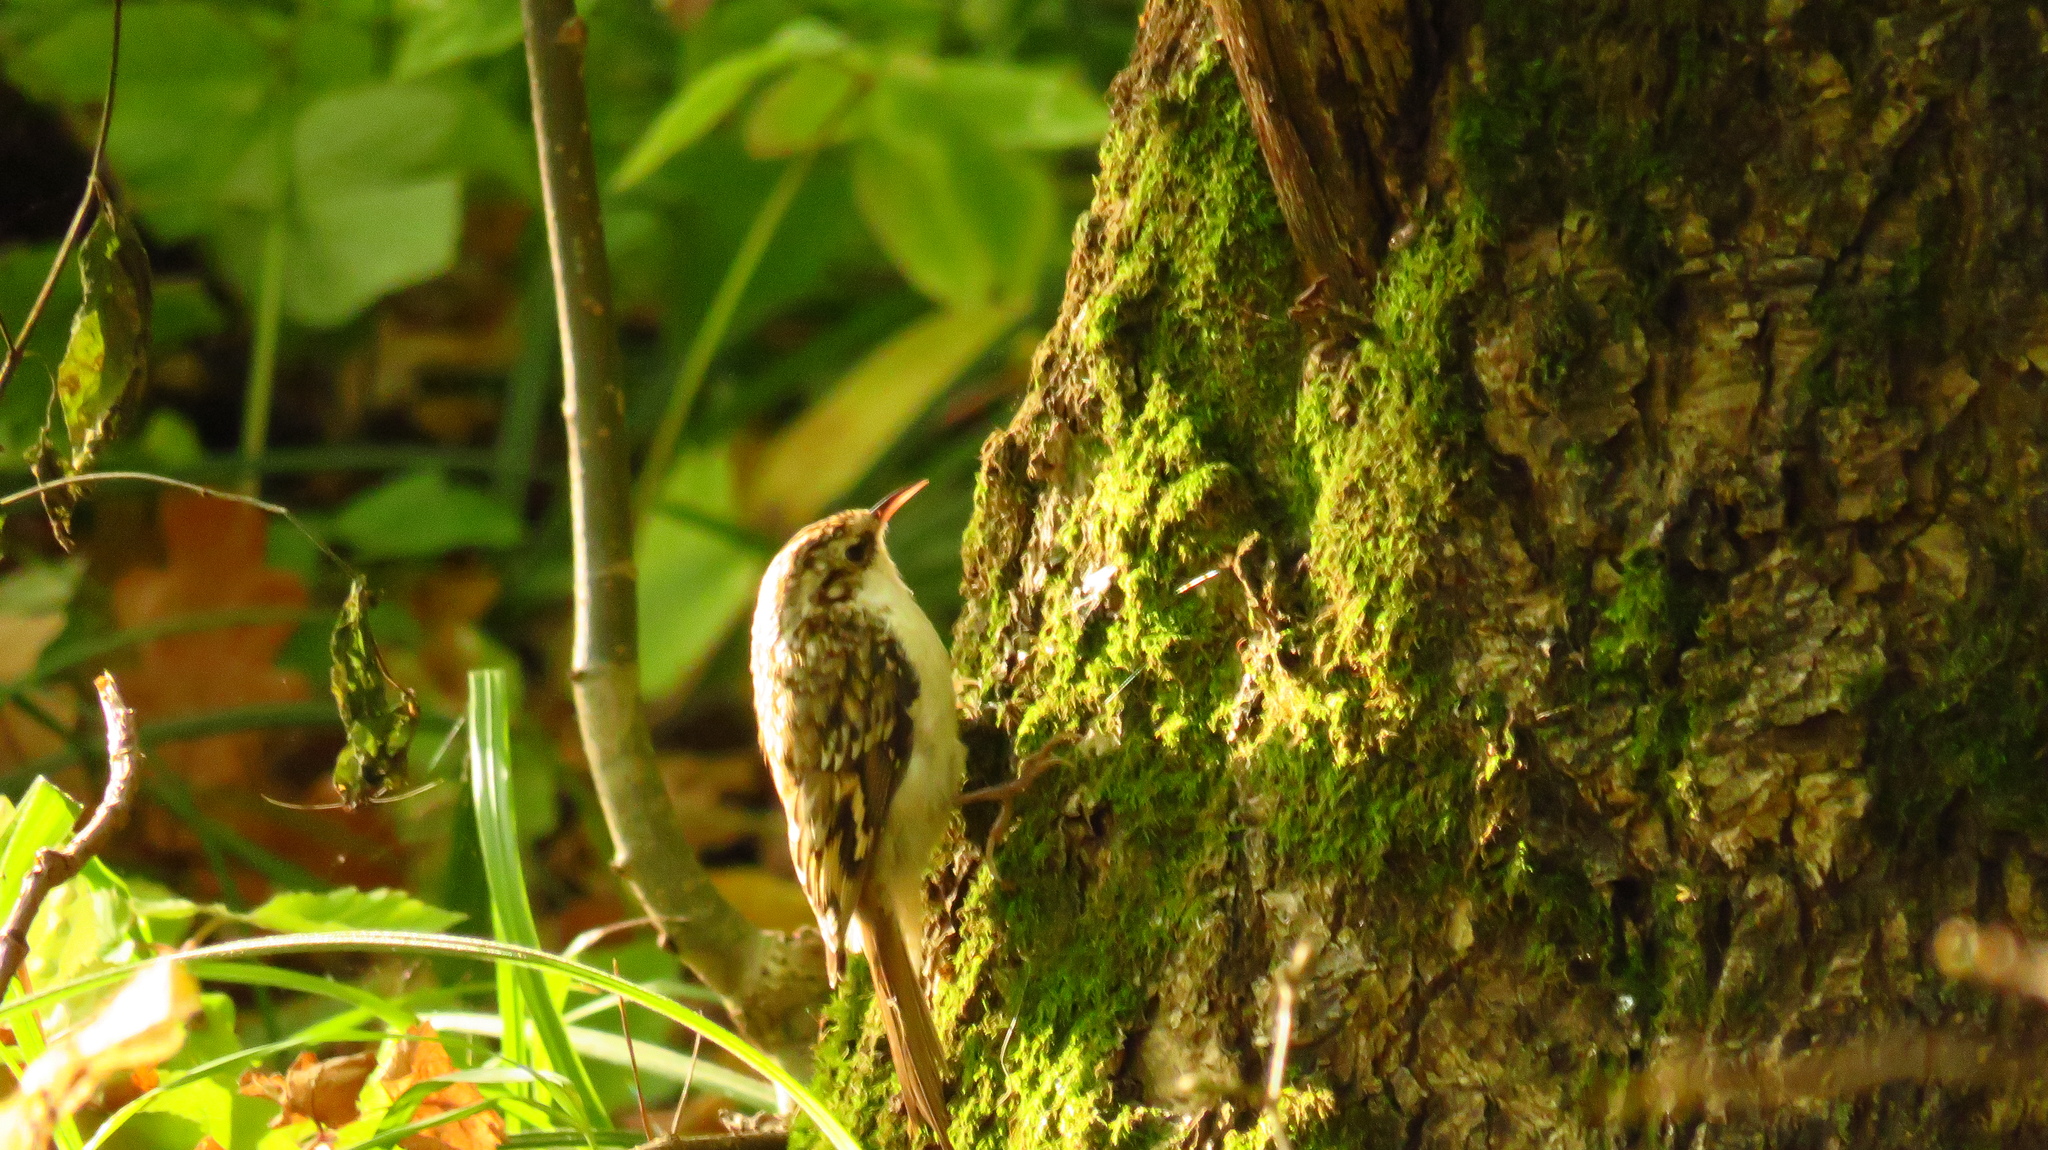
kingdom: Animalia
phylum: Chordata
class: Aves
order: Passeriformes
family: Certhiidae
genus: Certhia
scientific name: Certhia familiaris
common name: Eurasian treecreeper
